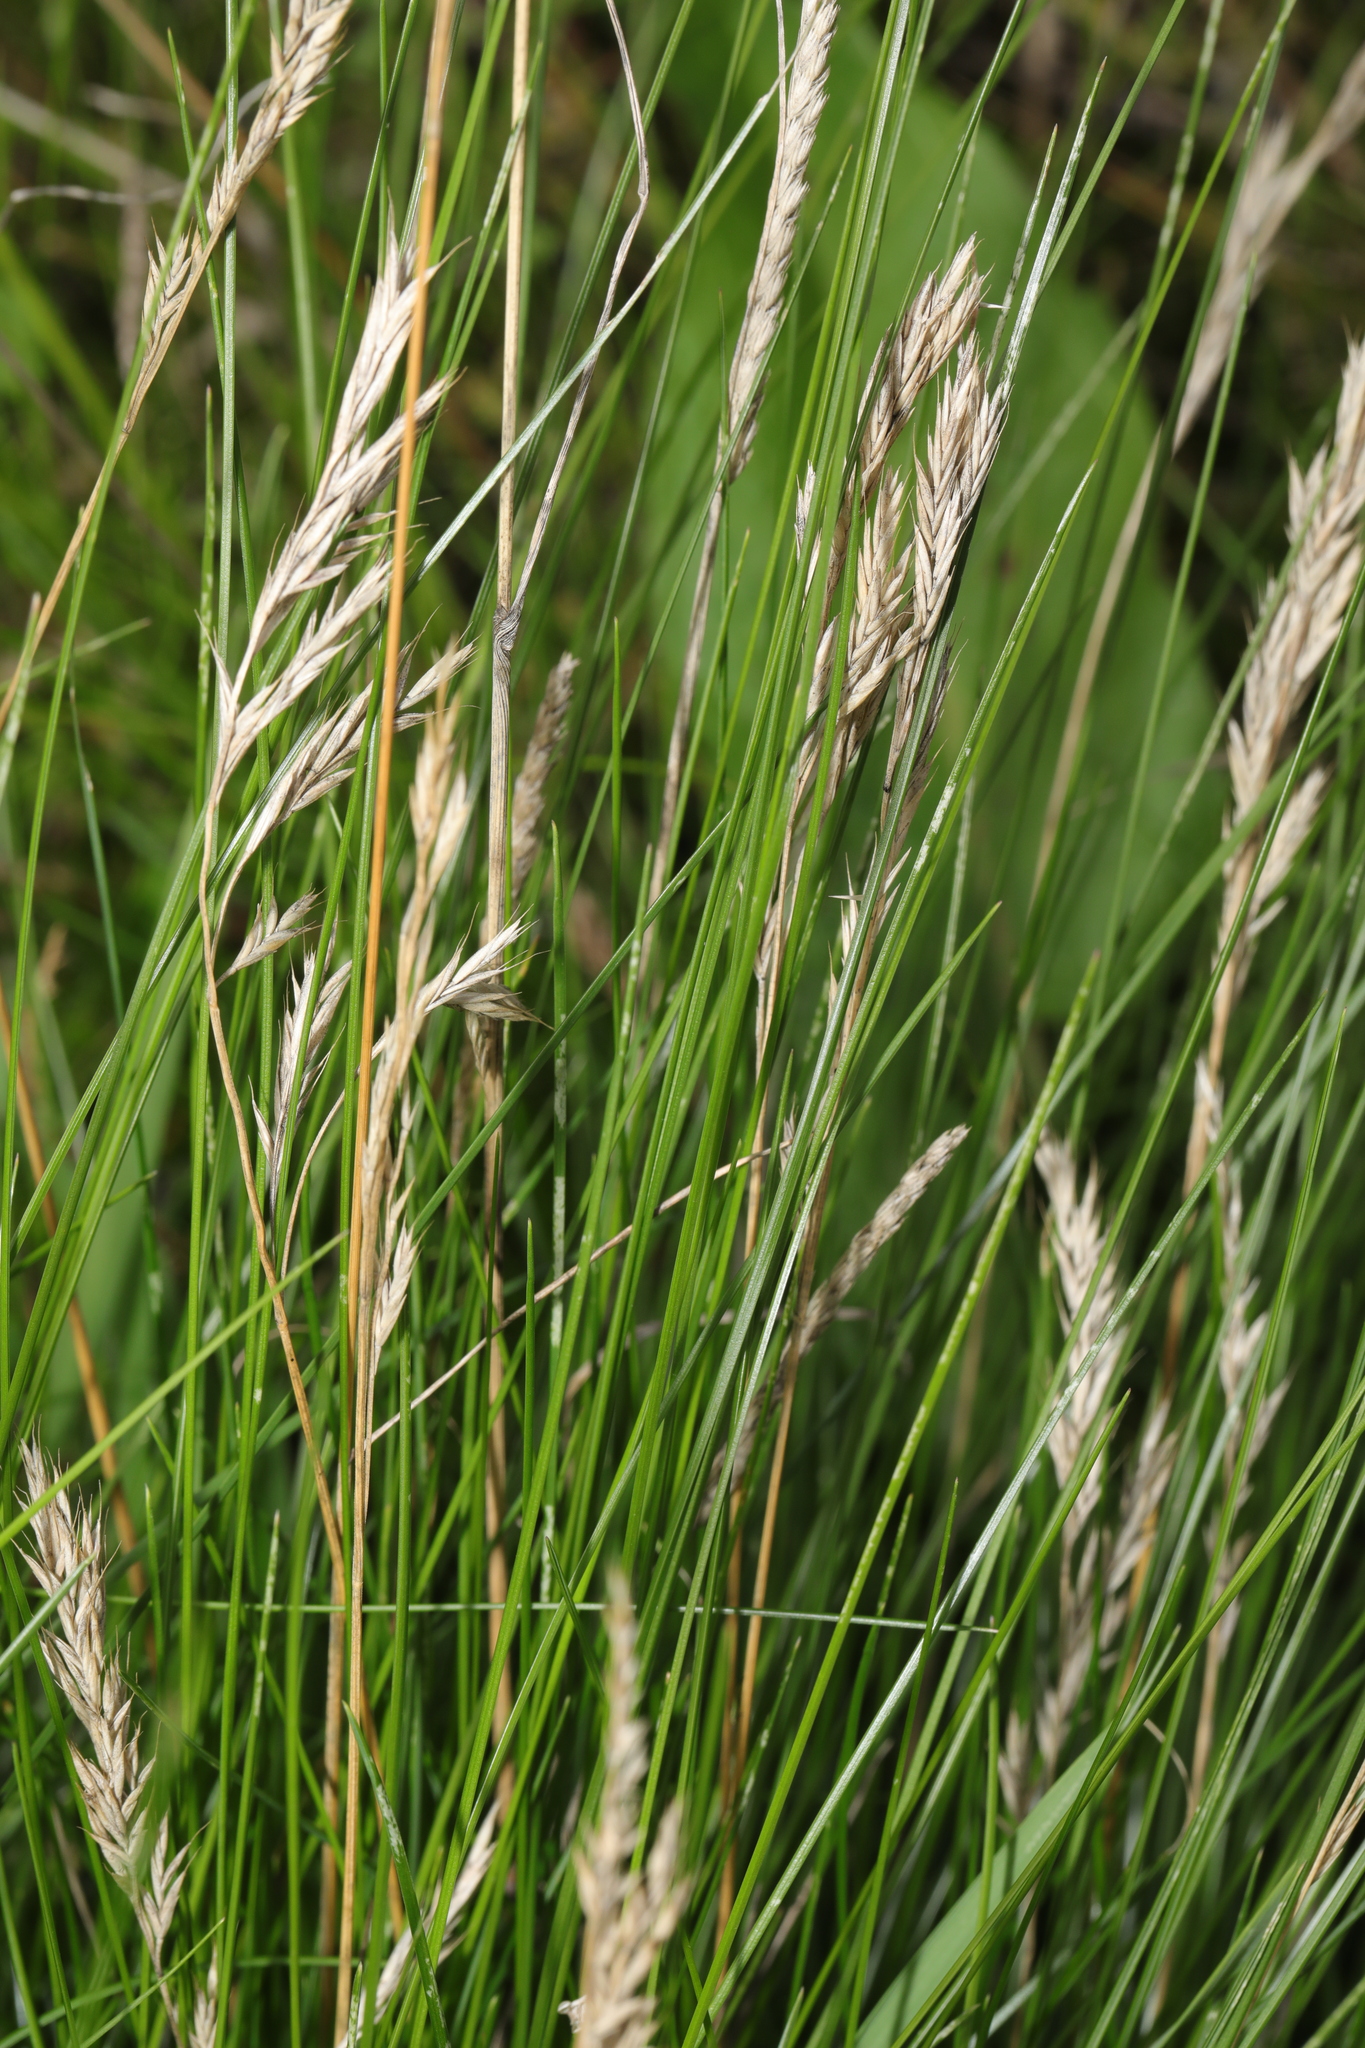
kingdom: Plantae
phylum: Tracheophyta
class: Liliopsida
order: Poales
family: Poaceae
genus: Festuca
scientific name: Festuca rubra
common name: Red fescue
